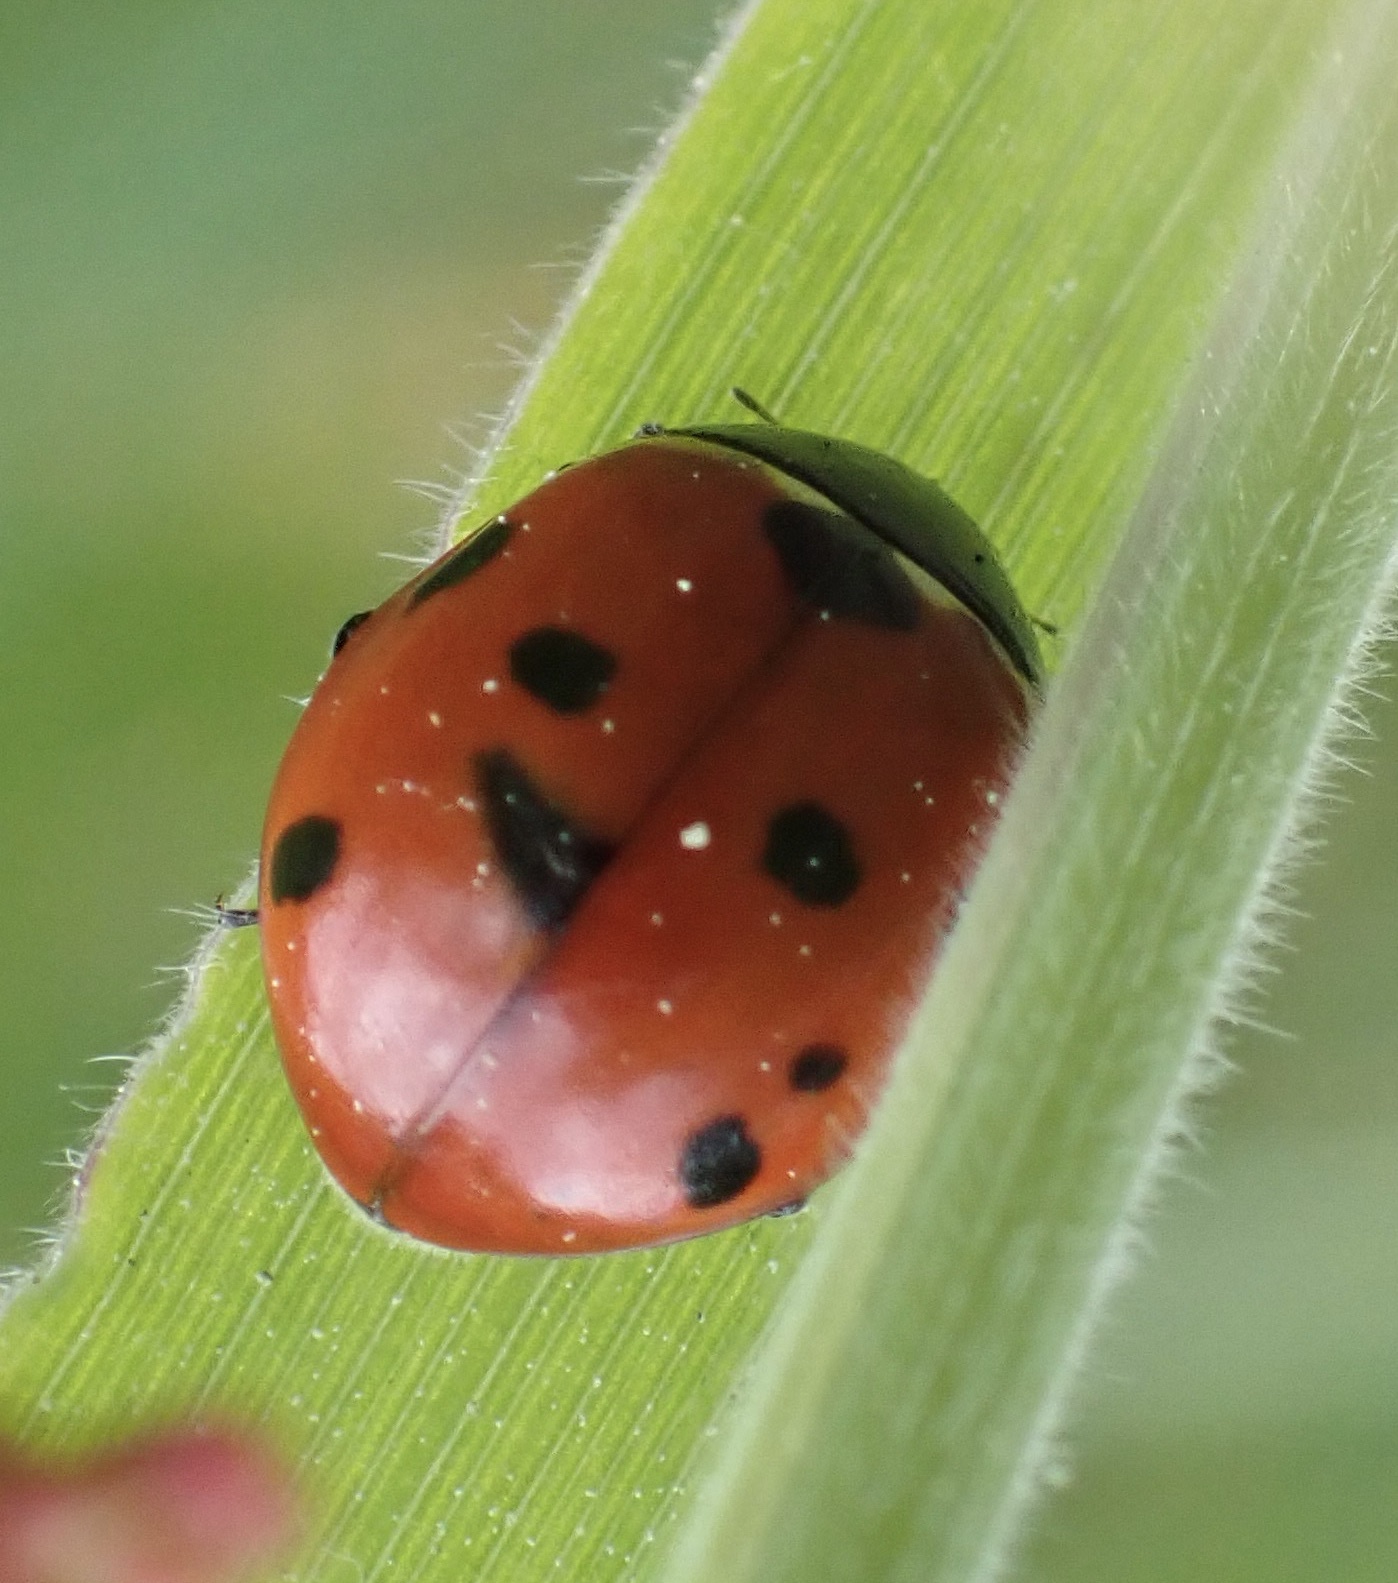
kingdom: Animalia
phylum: Arthropoda
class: Insecta
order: Coleoptera
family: Coccinellidae
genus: Coccinella
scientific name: Coccinella septempunctata
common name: Sevenspotted lady beetle
